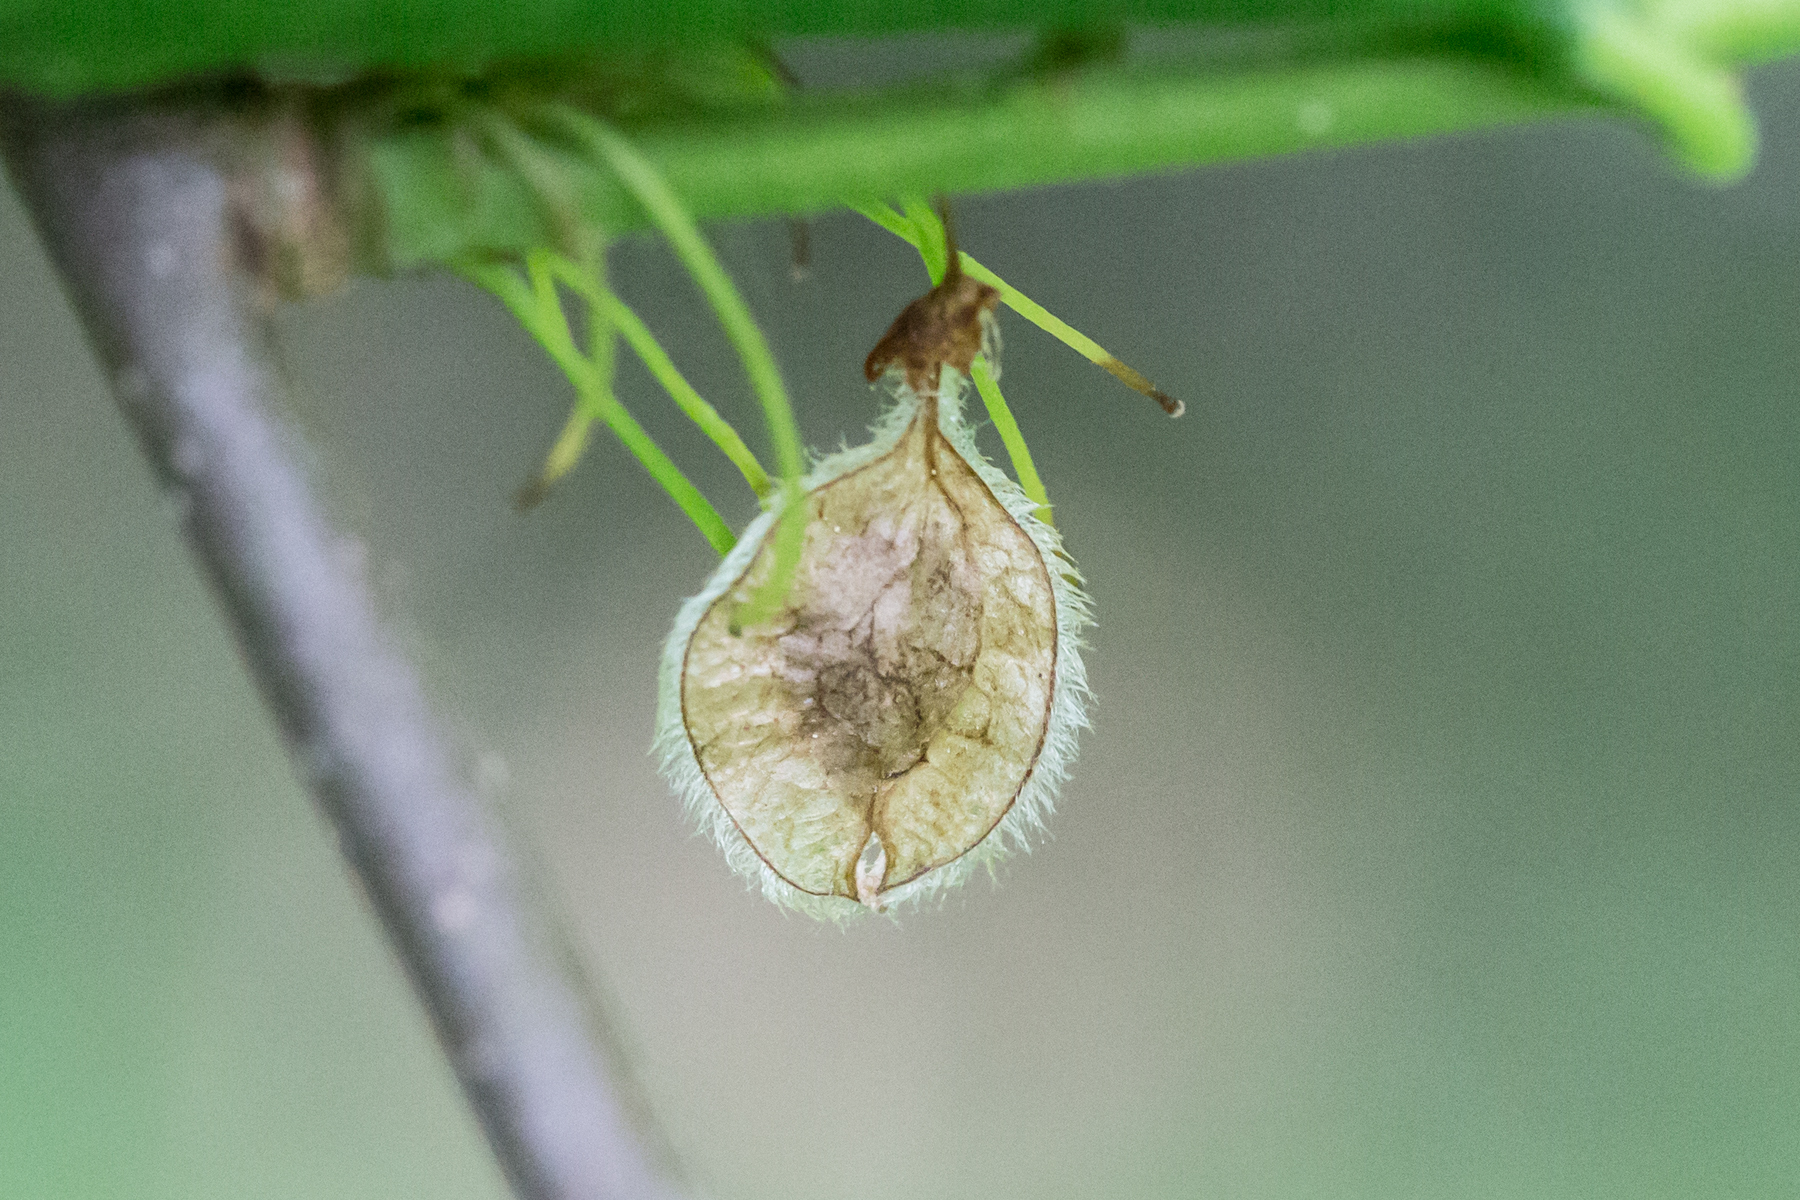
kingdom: Plantae
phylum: Tracheophyta
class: Magnoliopsida
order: Rosales
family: Ulmaceae
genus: Ulmus
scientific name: Ulmus americana
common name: American elm
